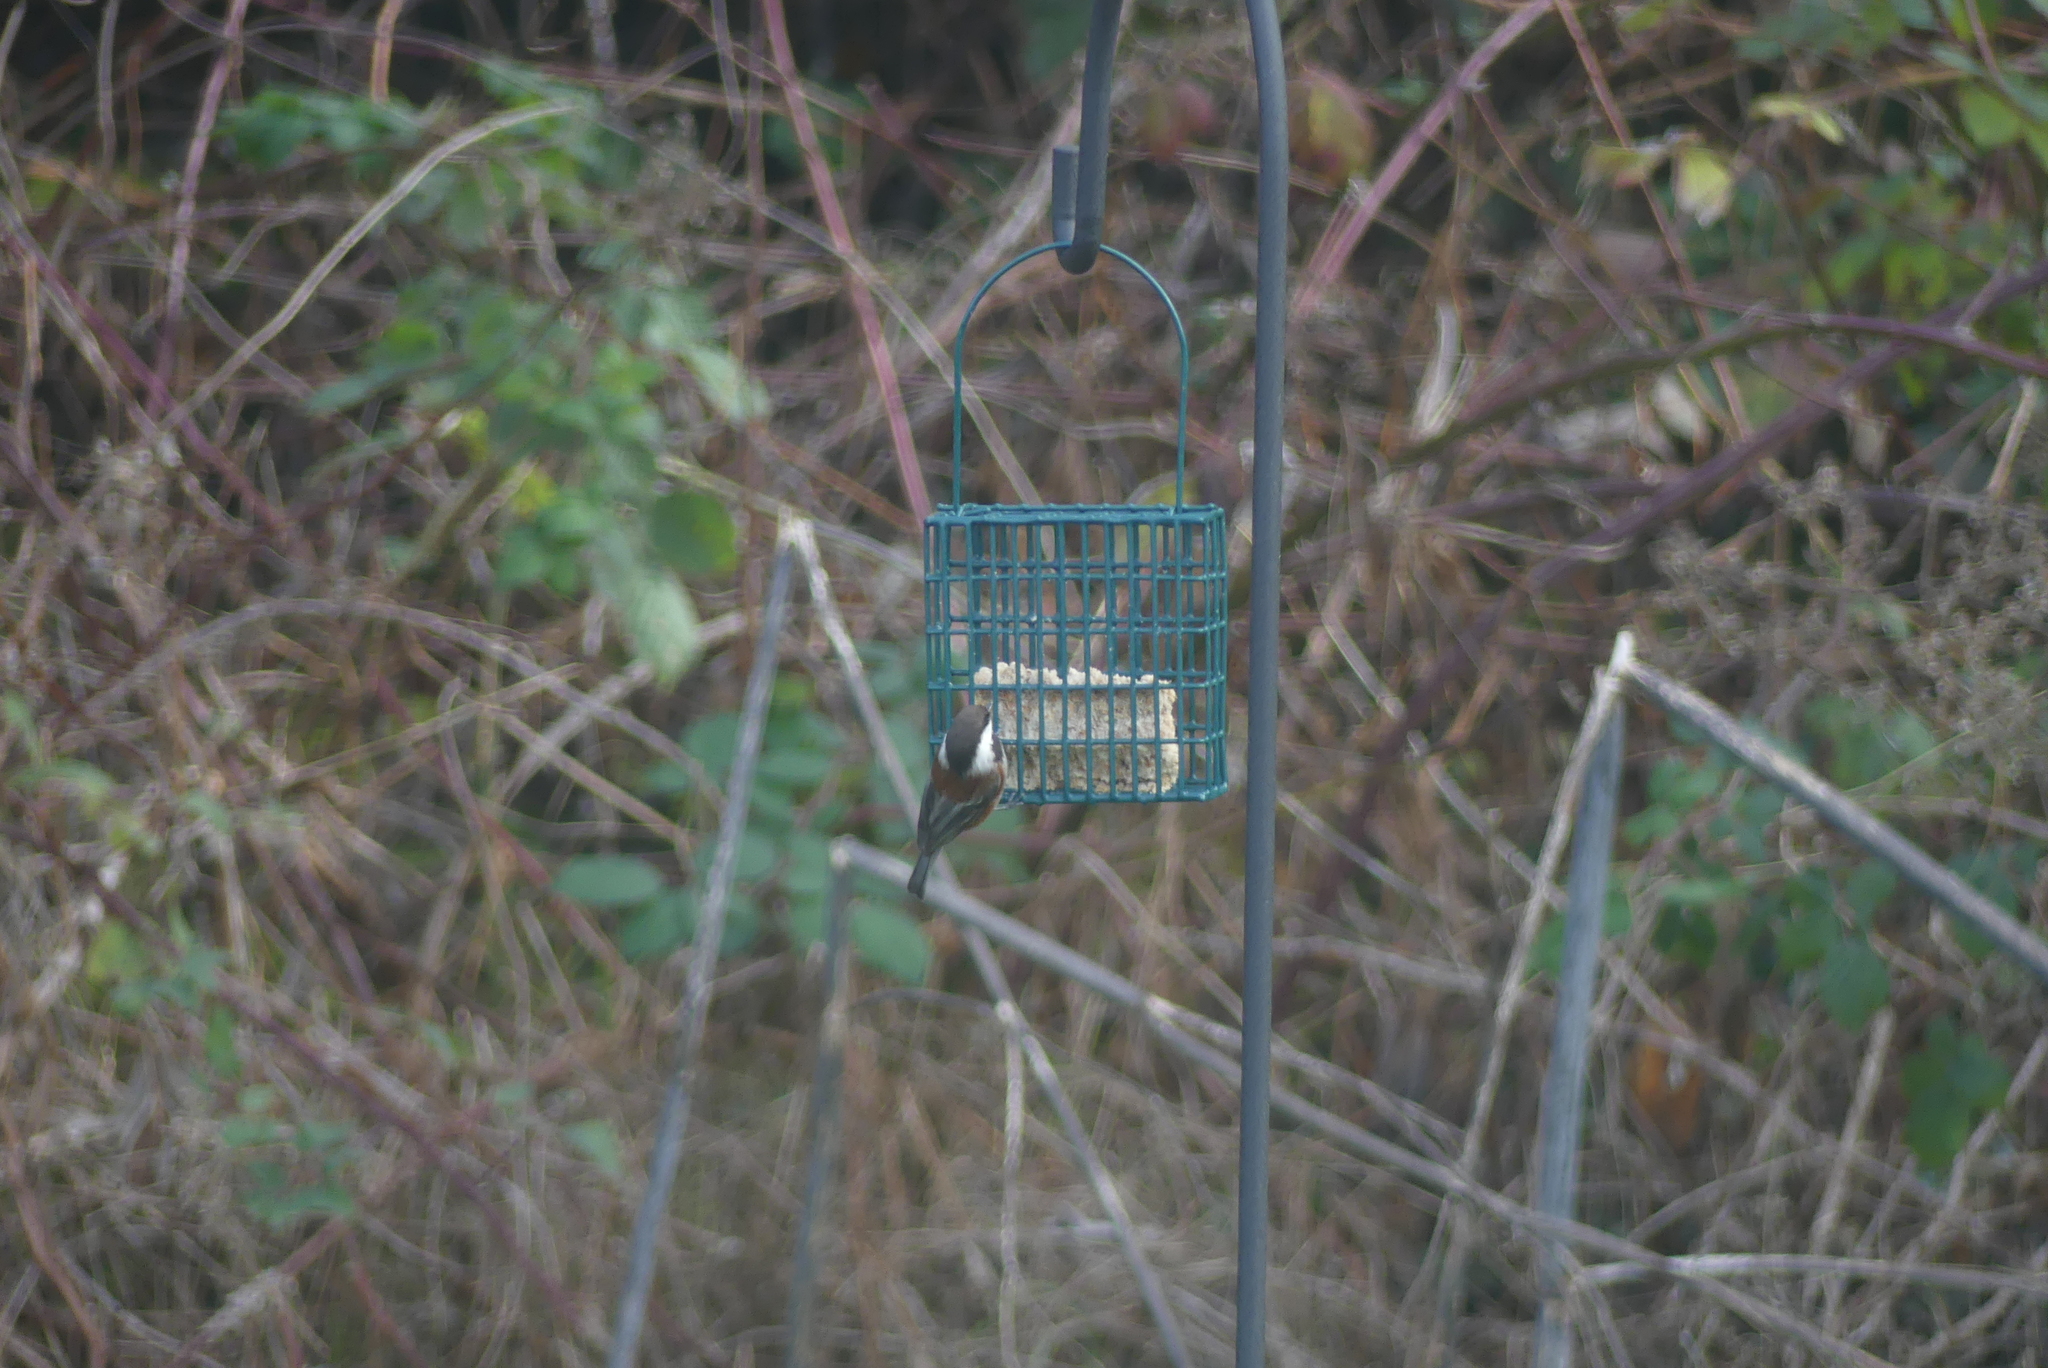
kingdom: Animalia
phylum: Chordata
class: Aves
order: Passeriformes
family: Paridae
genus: Poecile
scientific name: Poecile rufescens
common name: Chestnut-backed chickadee
